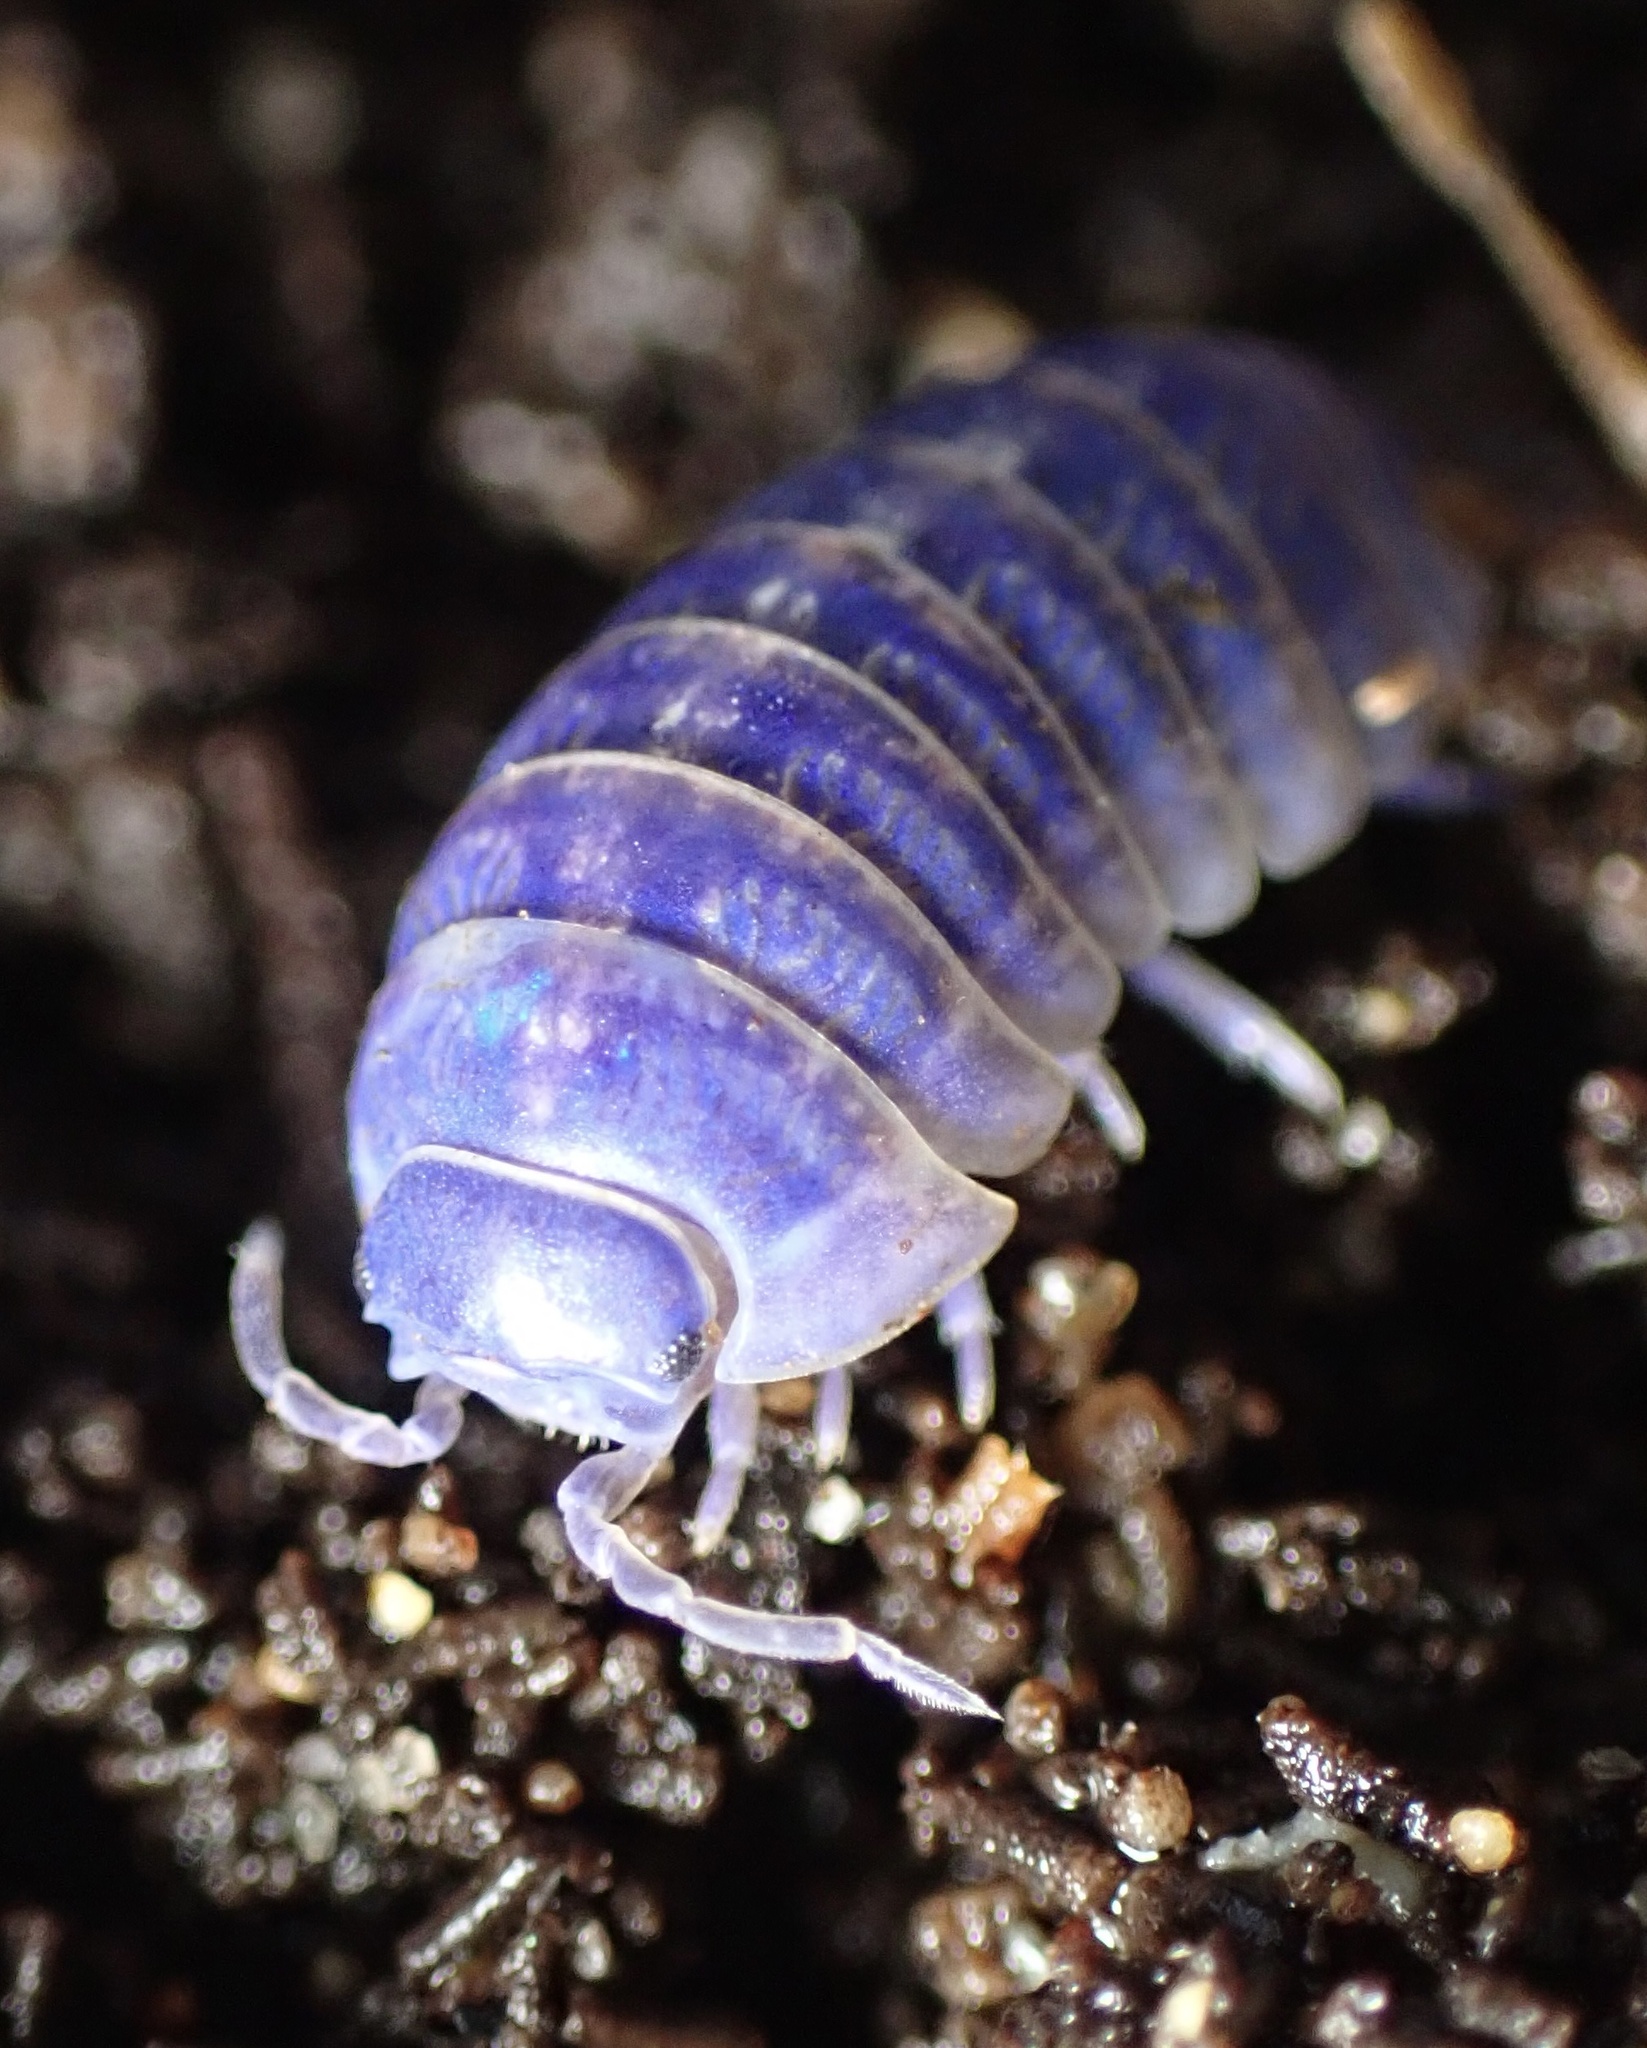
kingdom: Animalia
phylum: Arthropoda
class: Malacostraca
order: Isopoda
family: Armadillidiidae
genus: Armadillidium
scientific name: Armadillidium vulgare
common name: Common pill woodlouse
